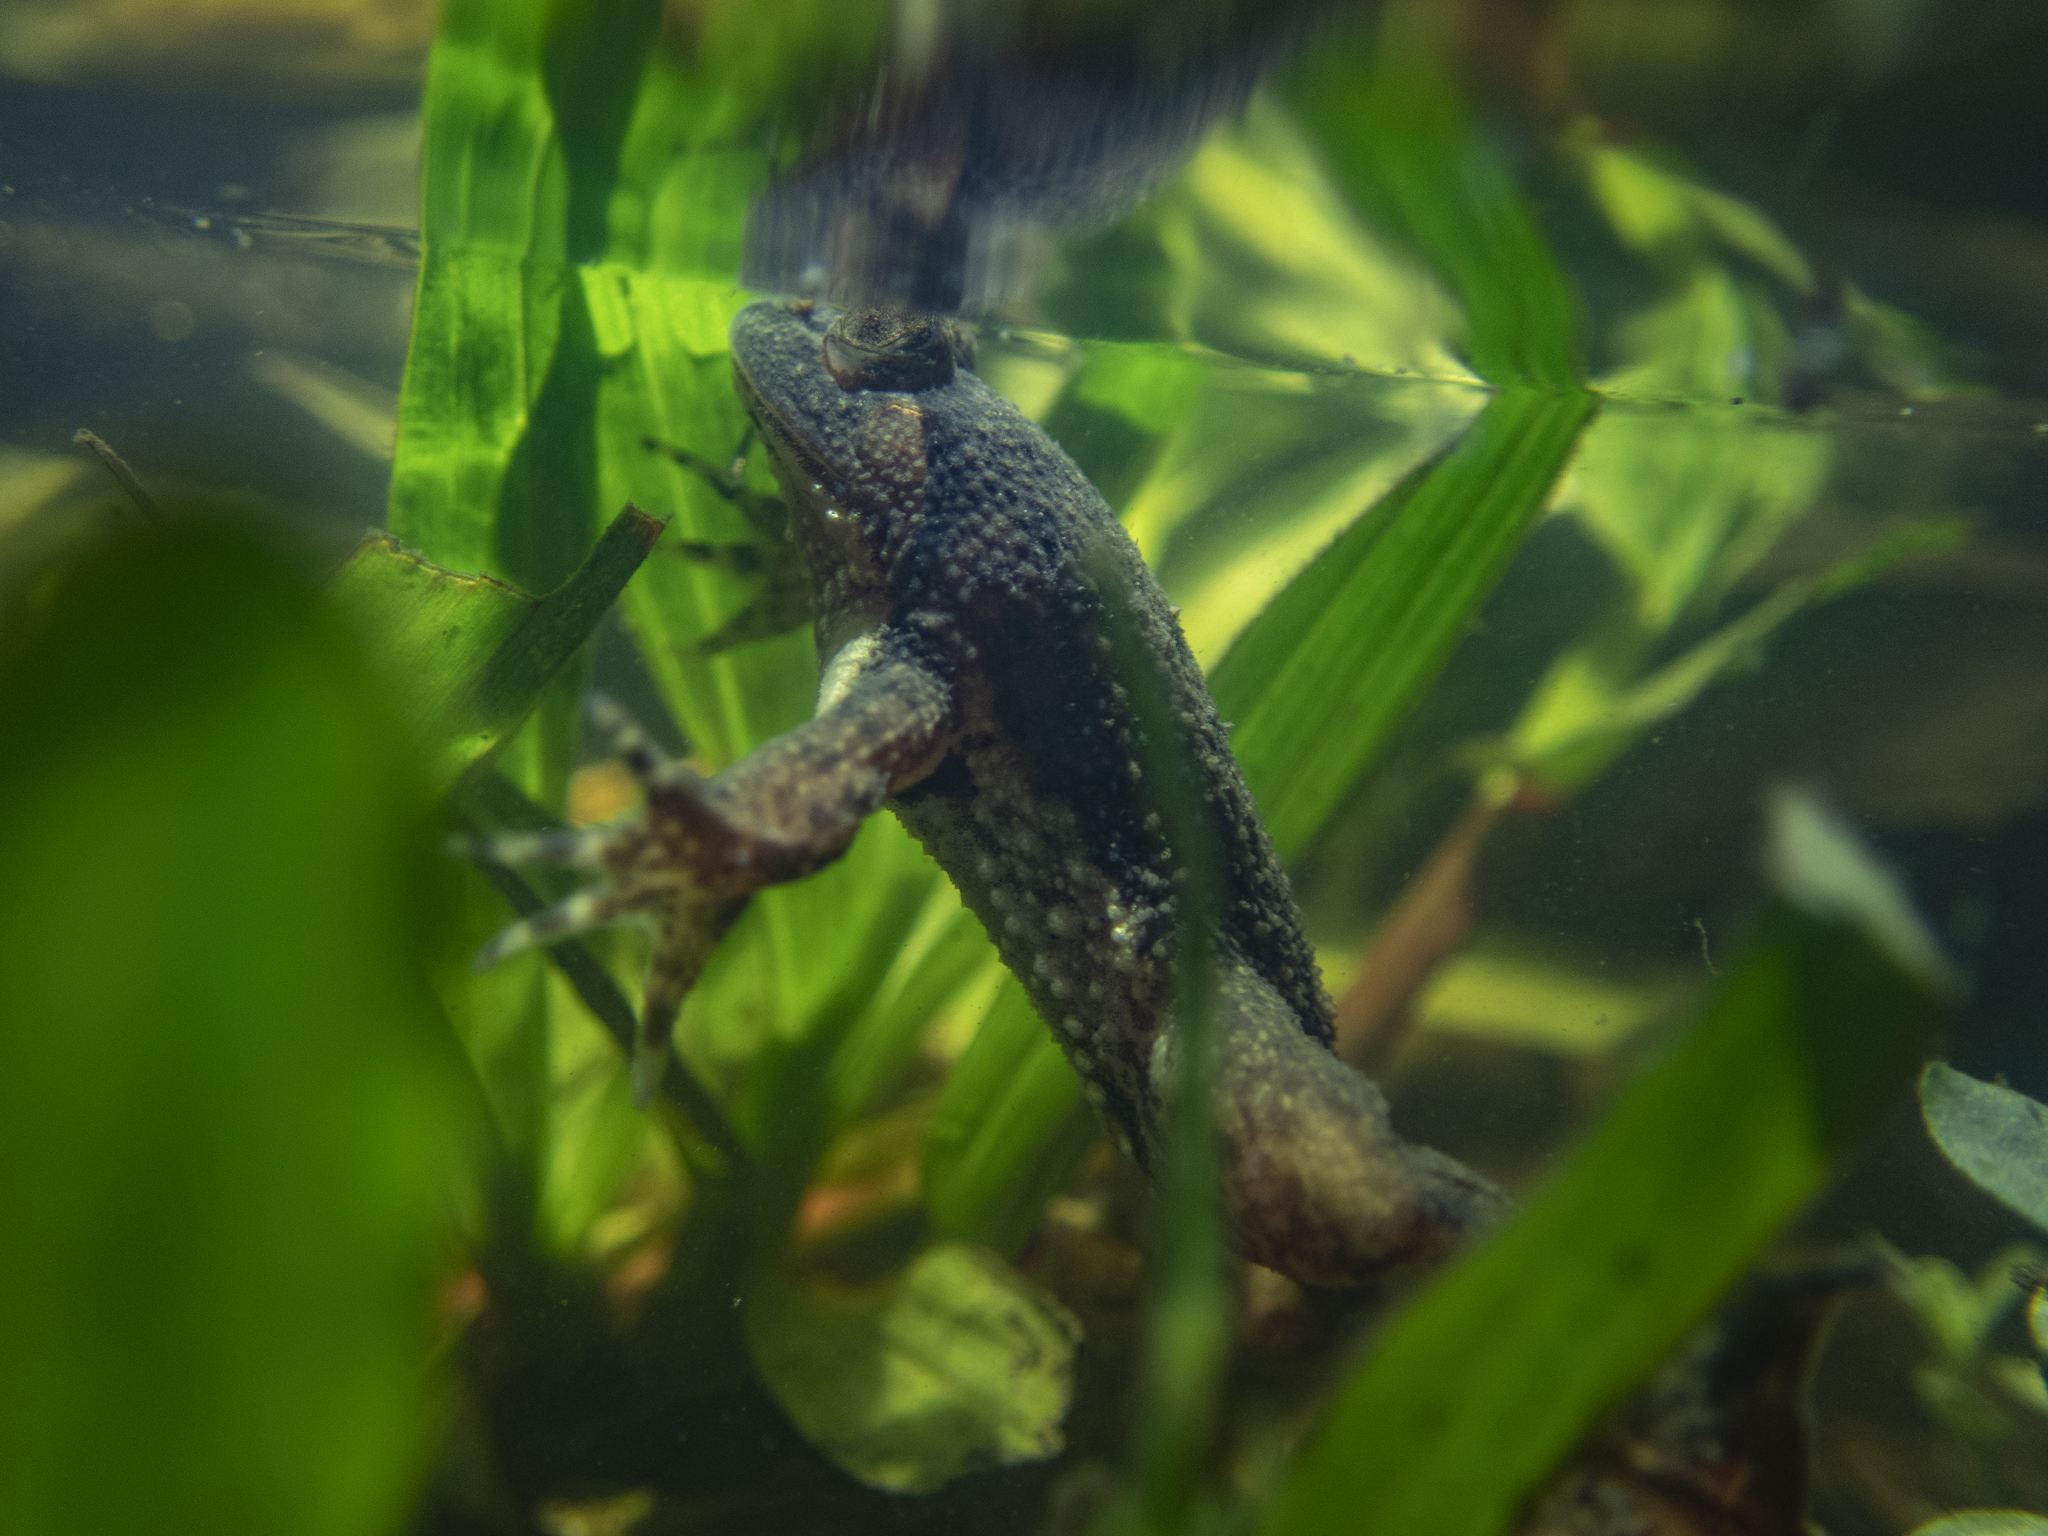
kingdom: Animalia
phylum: Chordata
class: Amphibia
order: Anura
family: Dicroglossidae
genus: Occidozyga
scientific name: Occidozyga lima
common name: Rough-skinned puddle frog/yellow-bellied puddle frog/green puddle frog/pointed-tongued floating frog
